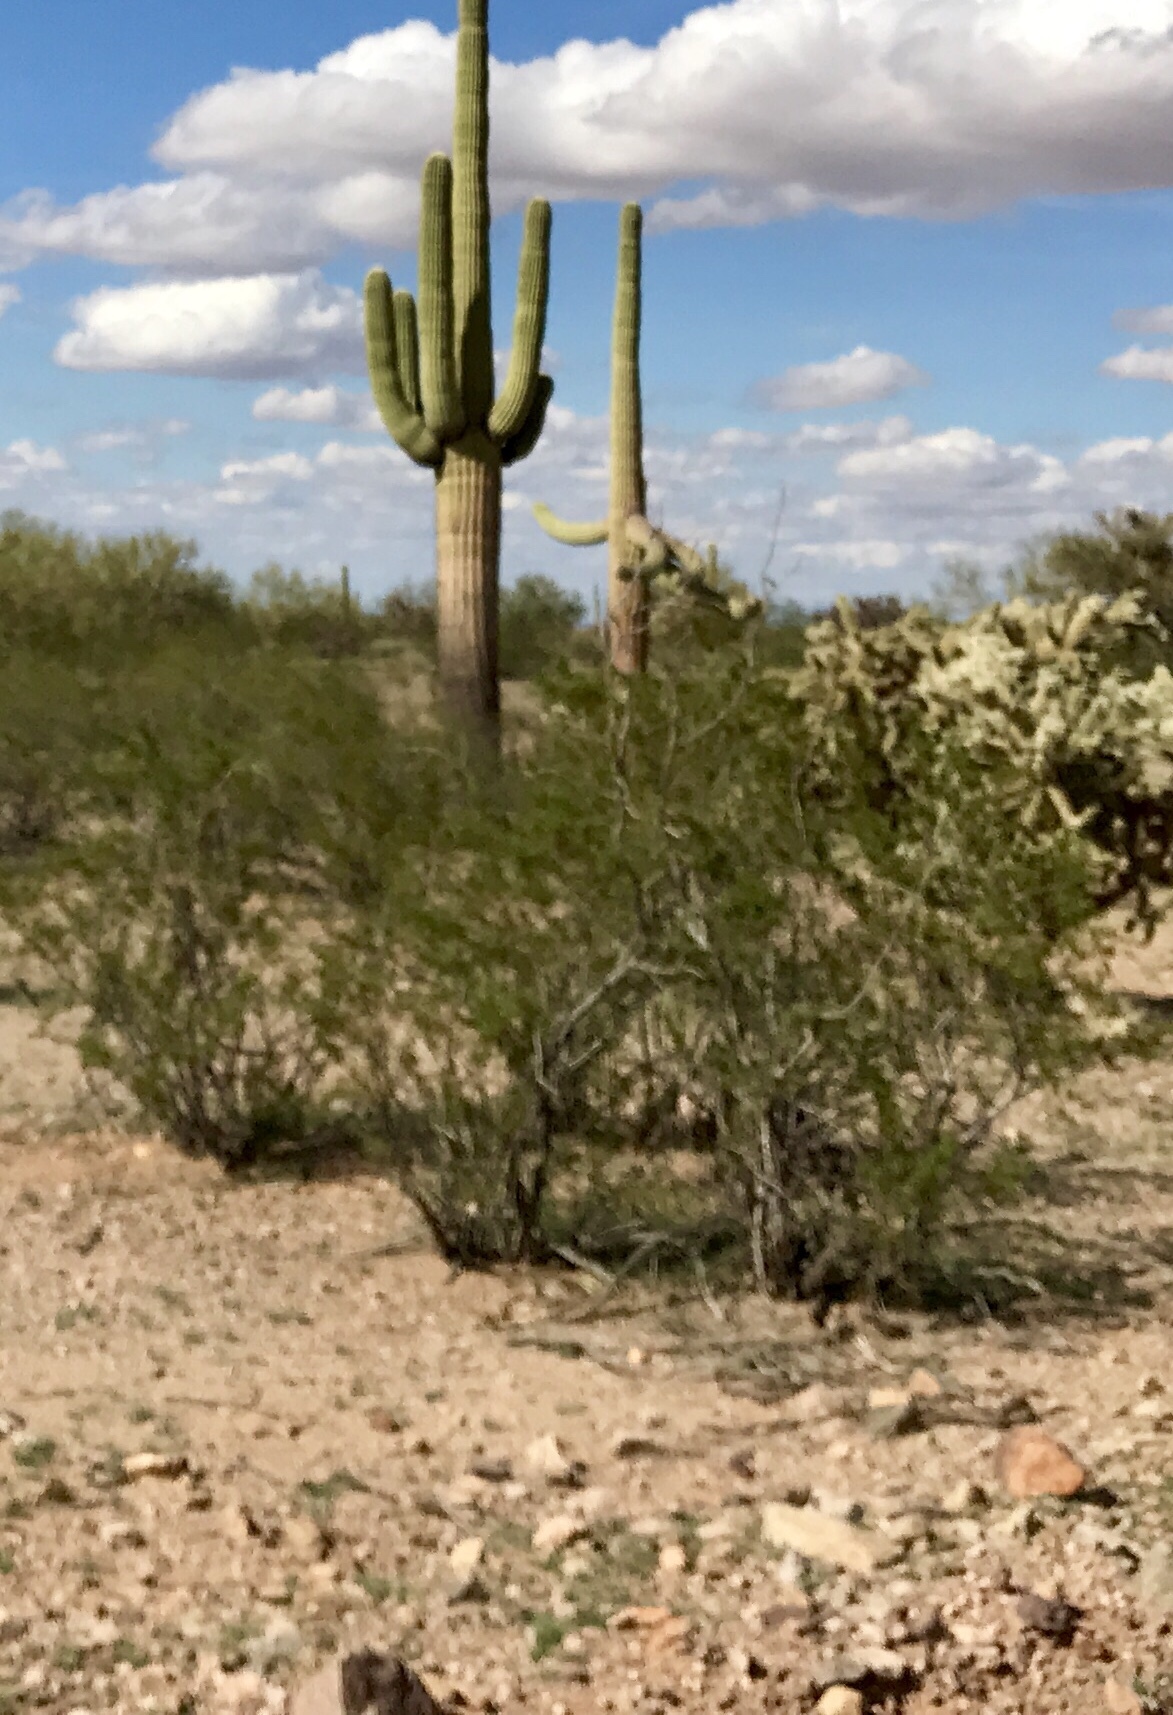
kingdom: Plantae
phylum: Tracheophyta
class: Magnoliopsida
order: Zygophyllales
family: Zygophyllaceae
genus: Larrea
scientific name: Larrea tridentata
